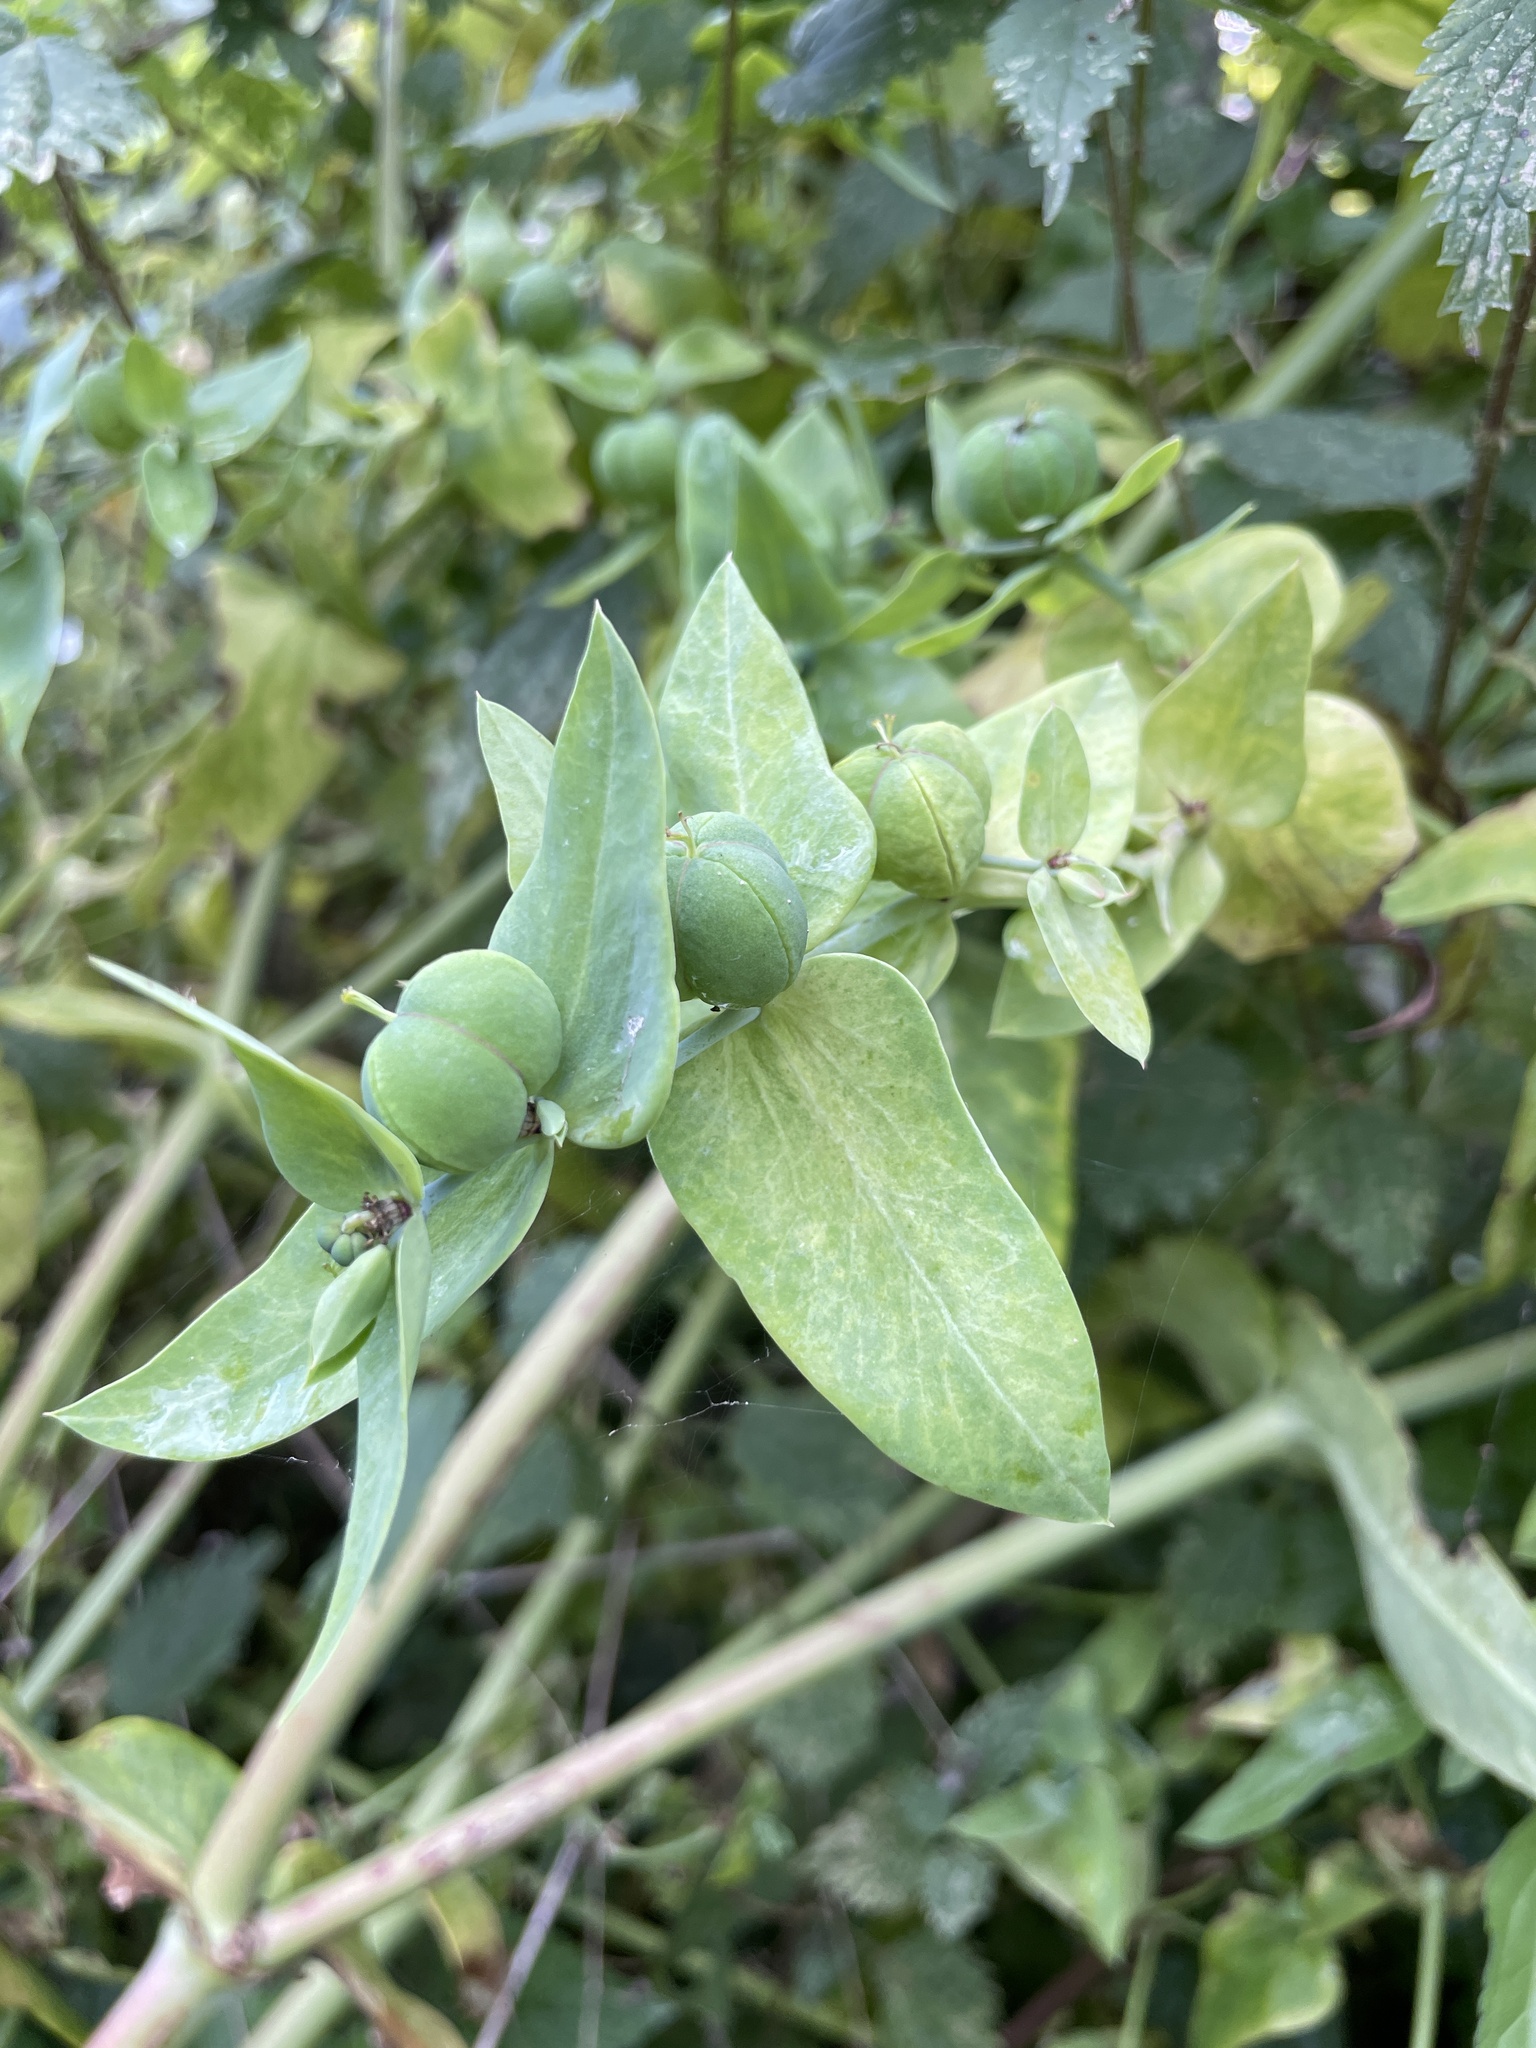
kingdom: Plantae
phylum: Tracheophyta
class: Magnoliopsida
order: Malpighiales
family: Euphorbiaceae
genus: Euphorbia
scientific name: Euphorbia lathyris
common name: Caper spurge
